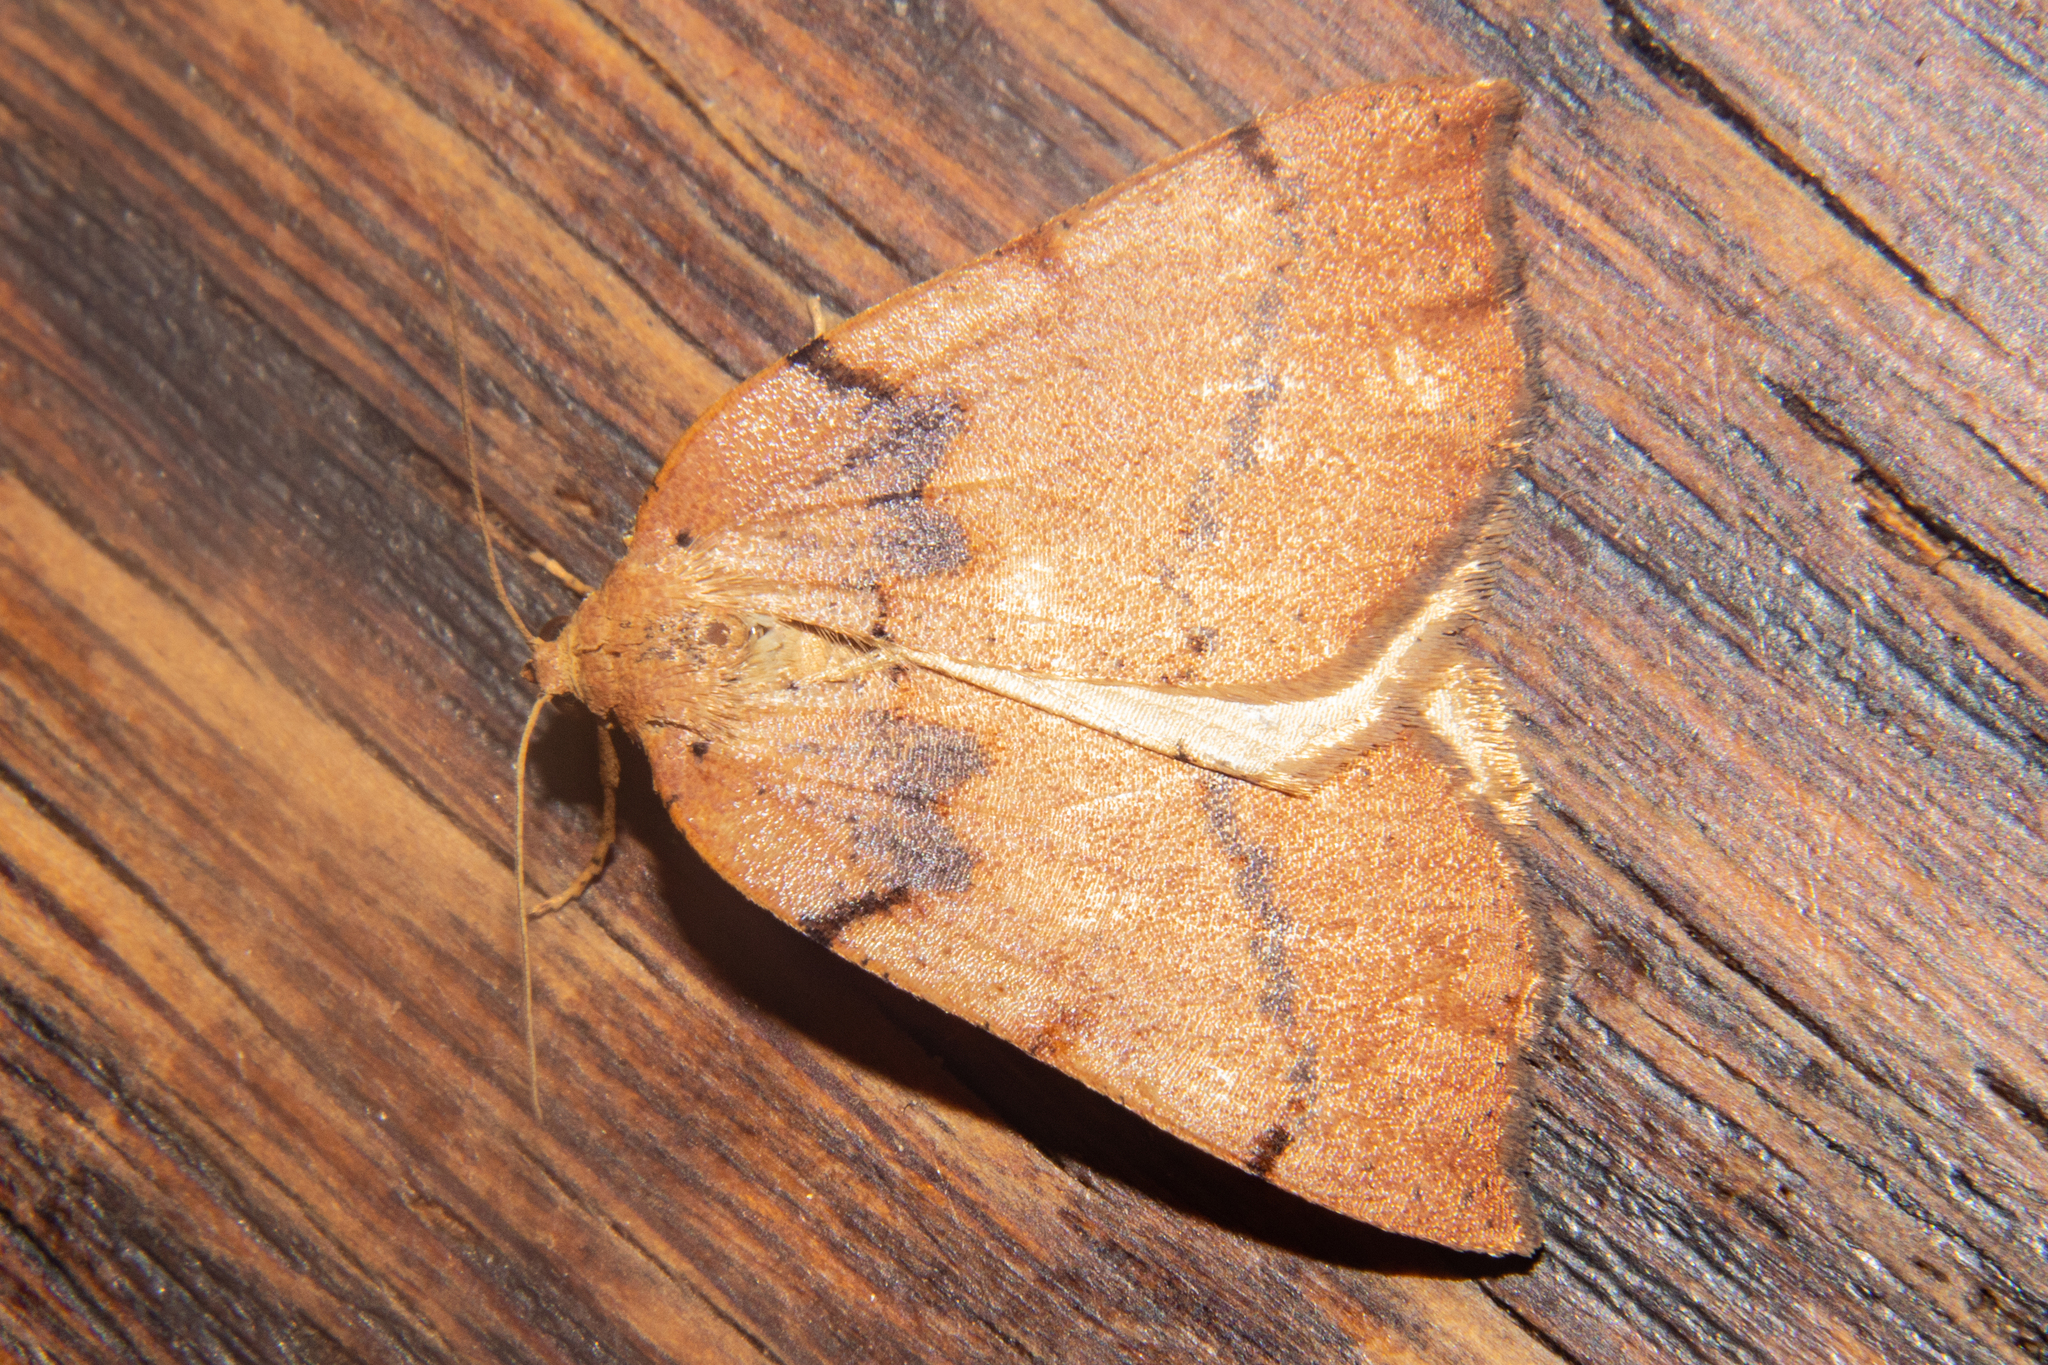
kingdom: Animalia
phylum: Arthropoda
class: Insecta
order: Lepidoptera
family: Geometridae
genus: Sestra
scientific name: Sestra humeraria
